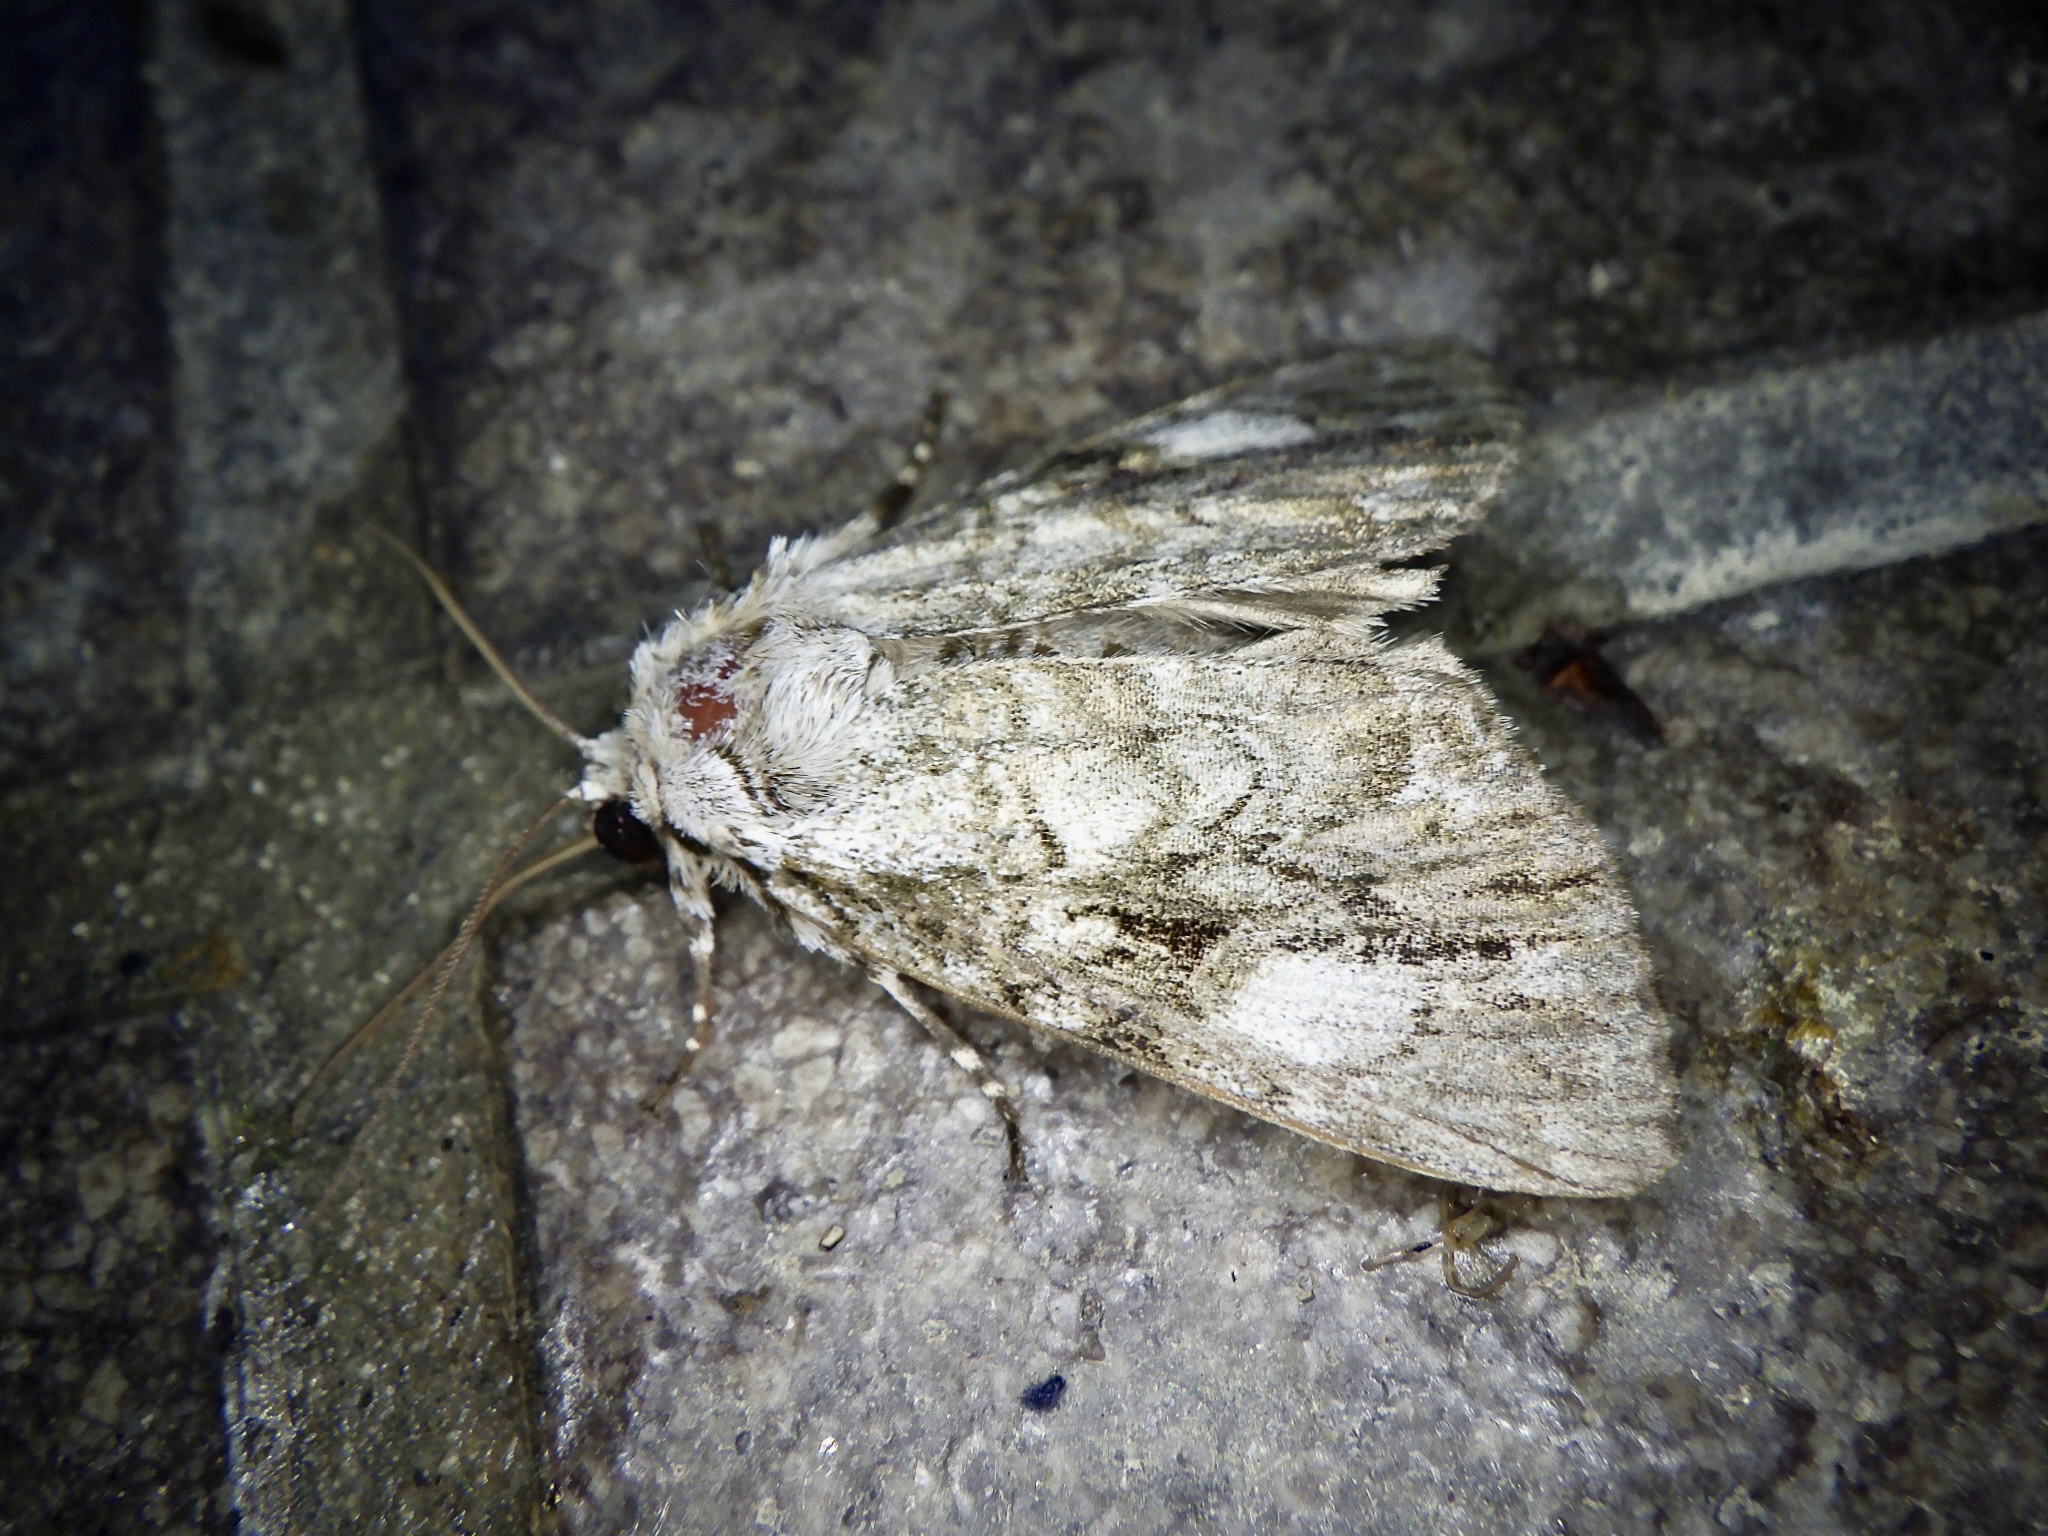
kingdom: Animalia
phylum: Arthropoda
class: Insecta
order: Lepidoptera
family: Noctuidae
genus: Anacronicta
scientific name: Anacronicta nitida
